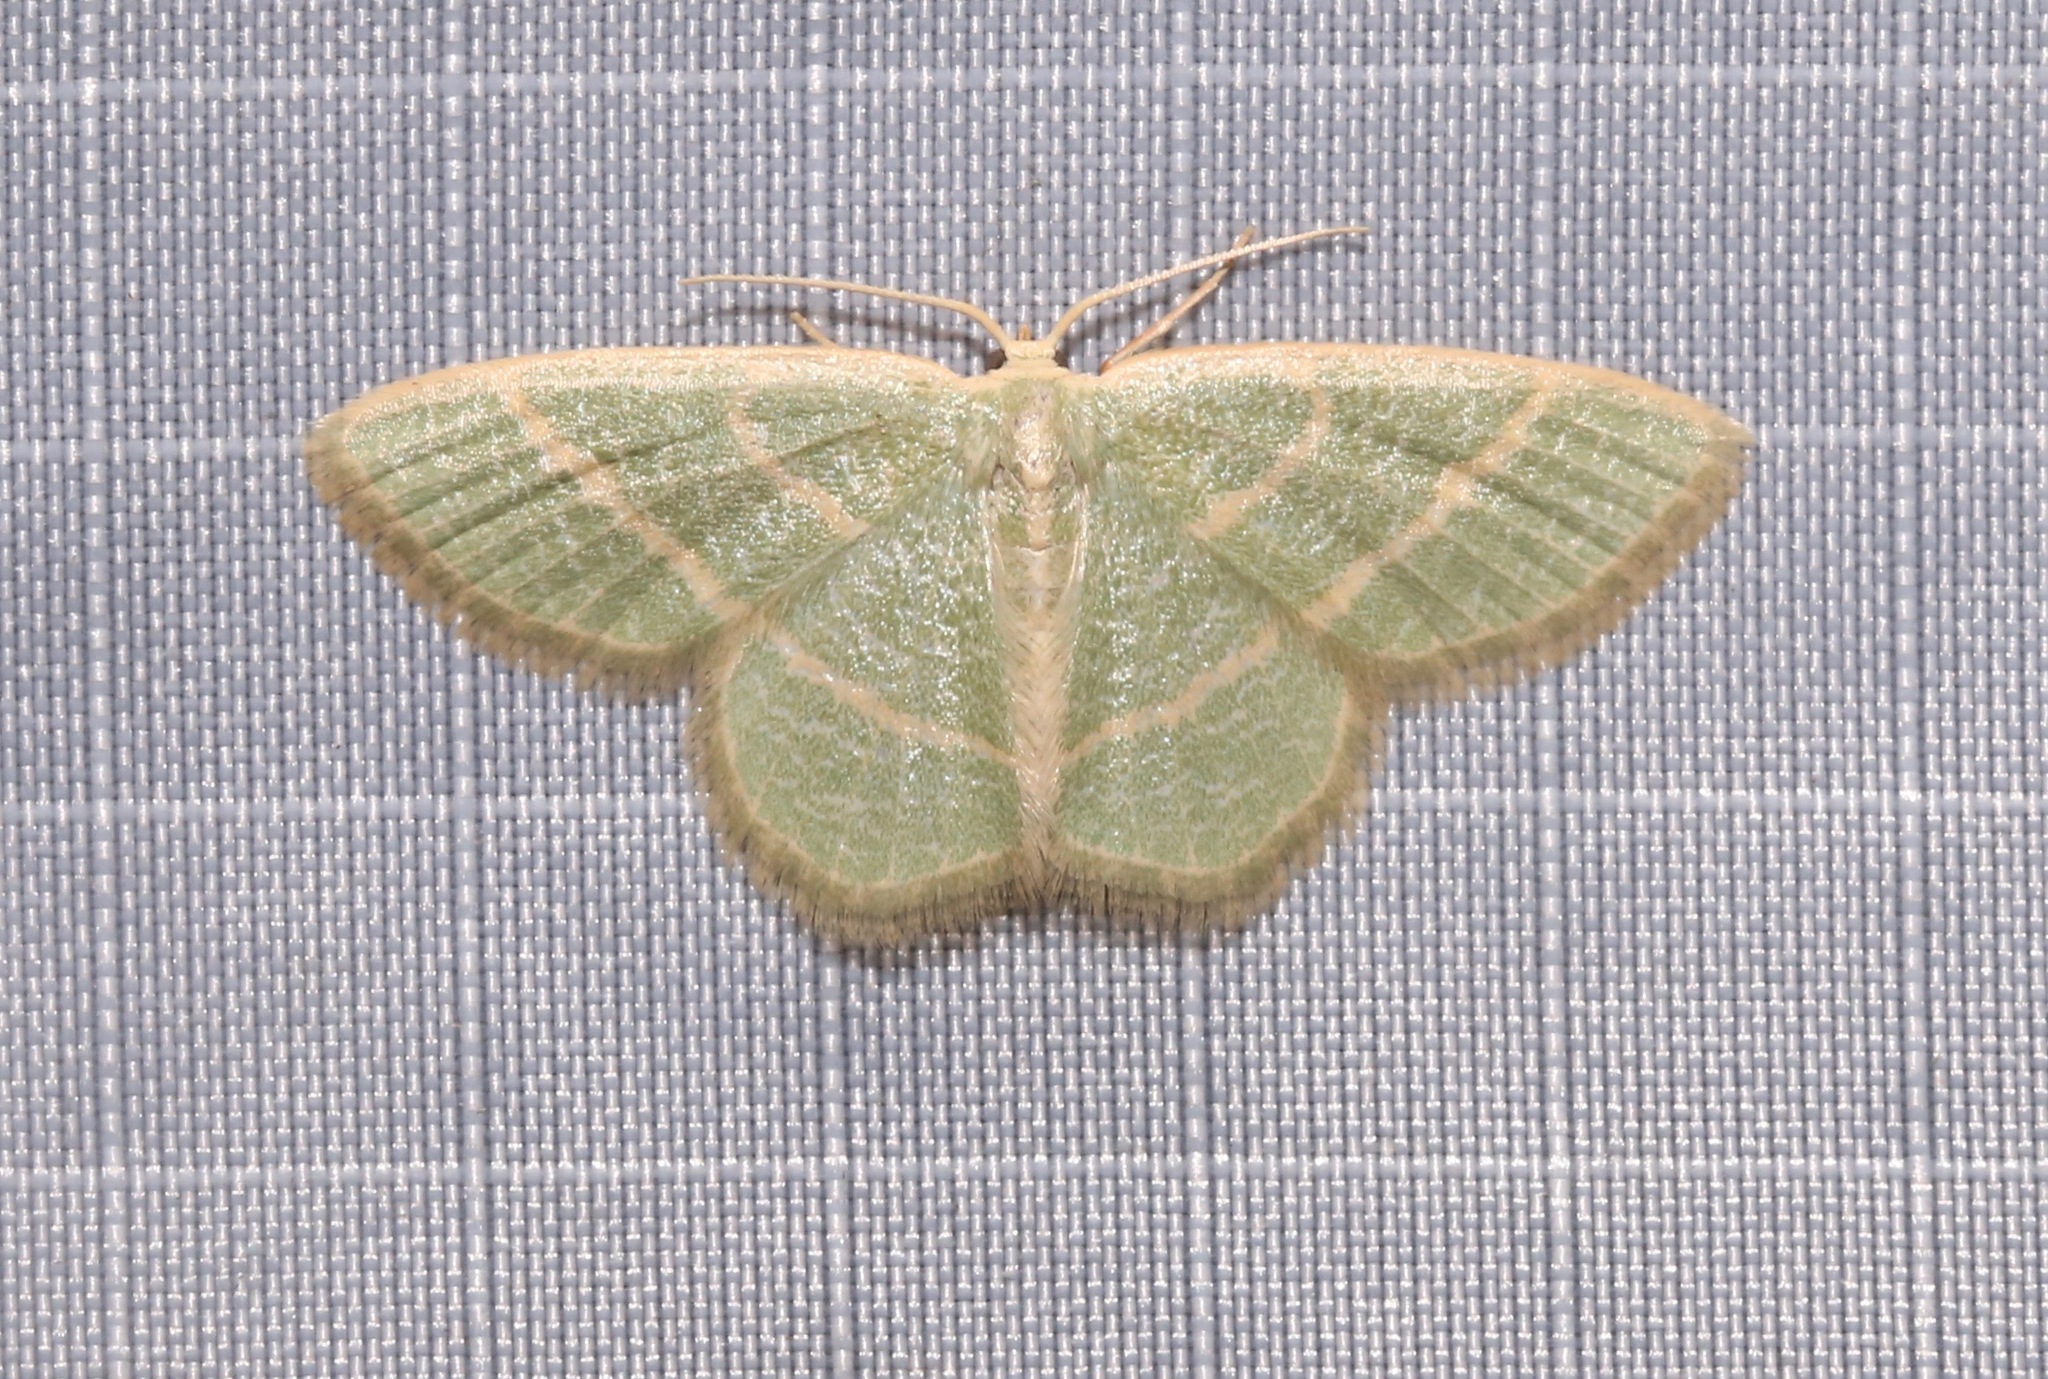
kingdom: Animalia
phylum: Arthropoda
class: Insecta
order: Lepidoptera
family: Geometridae
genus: Chlorochlamys
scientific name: Chlorochlamys chloroleucaria
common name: Blackberry looper
